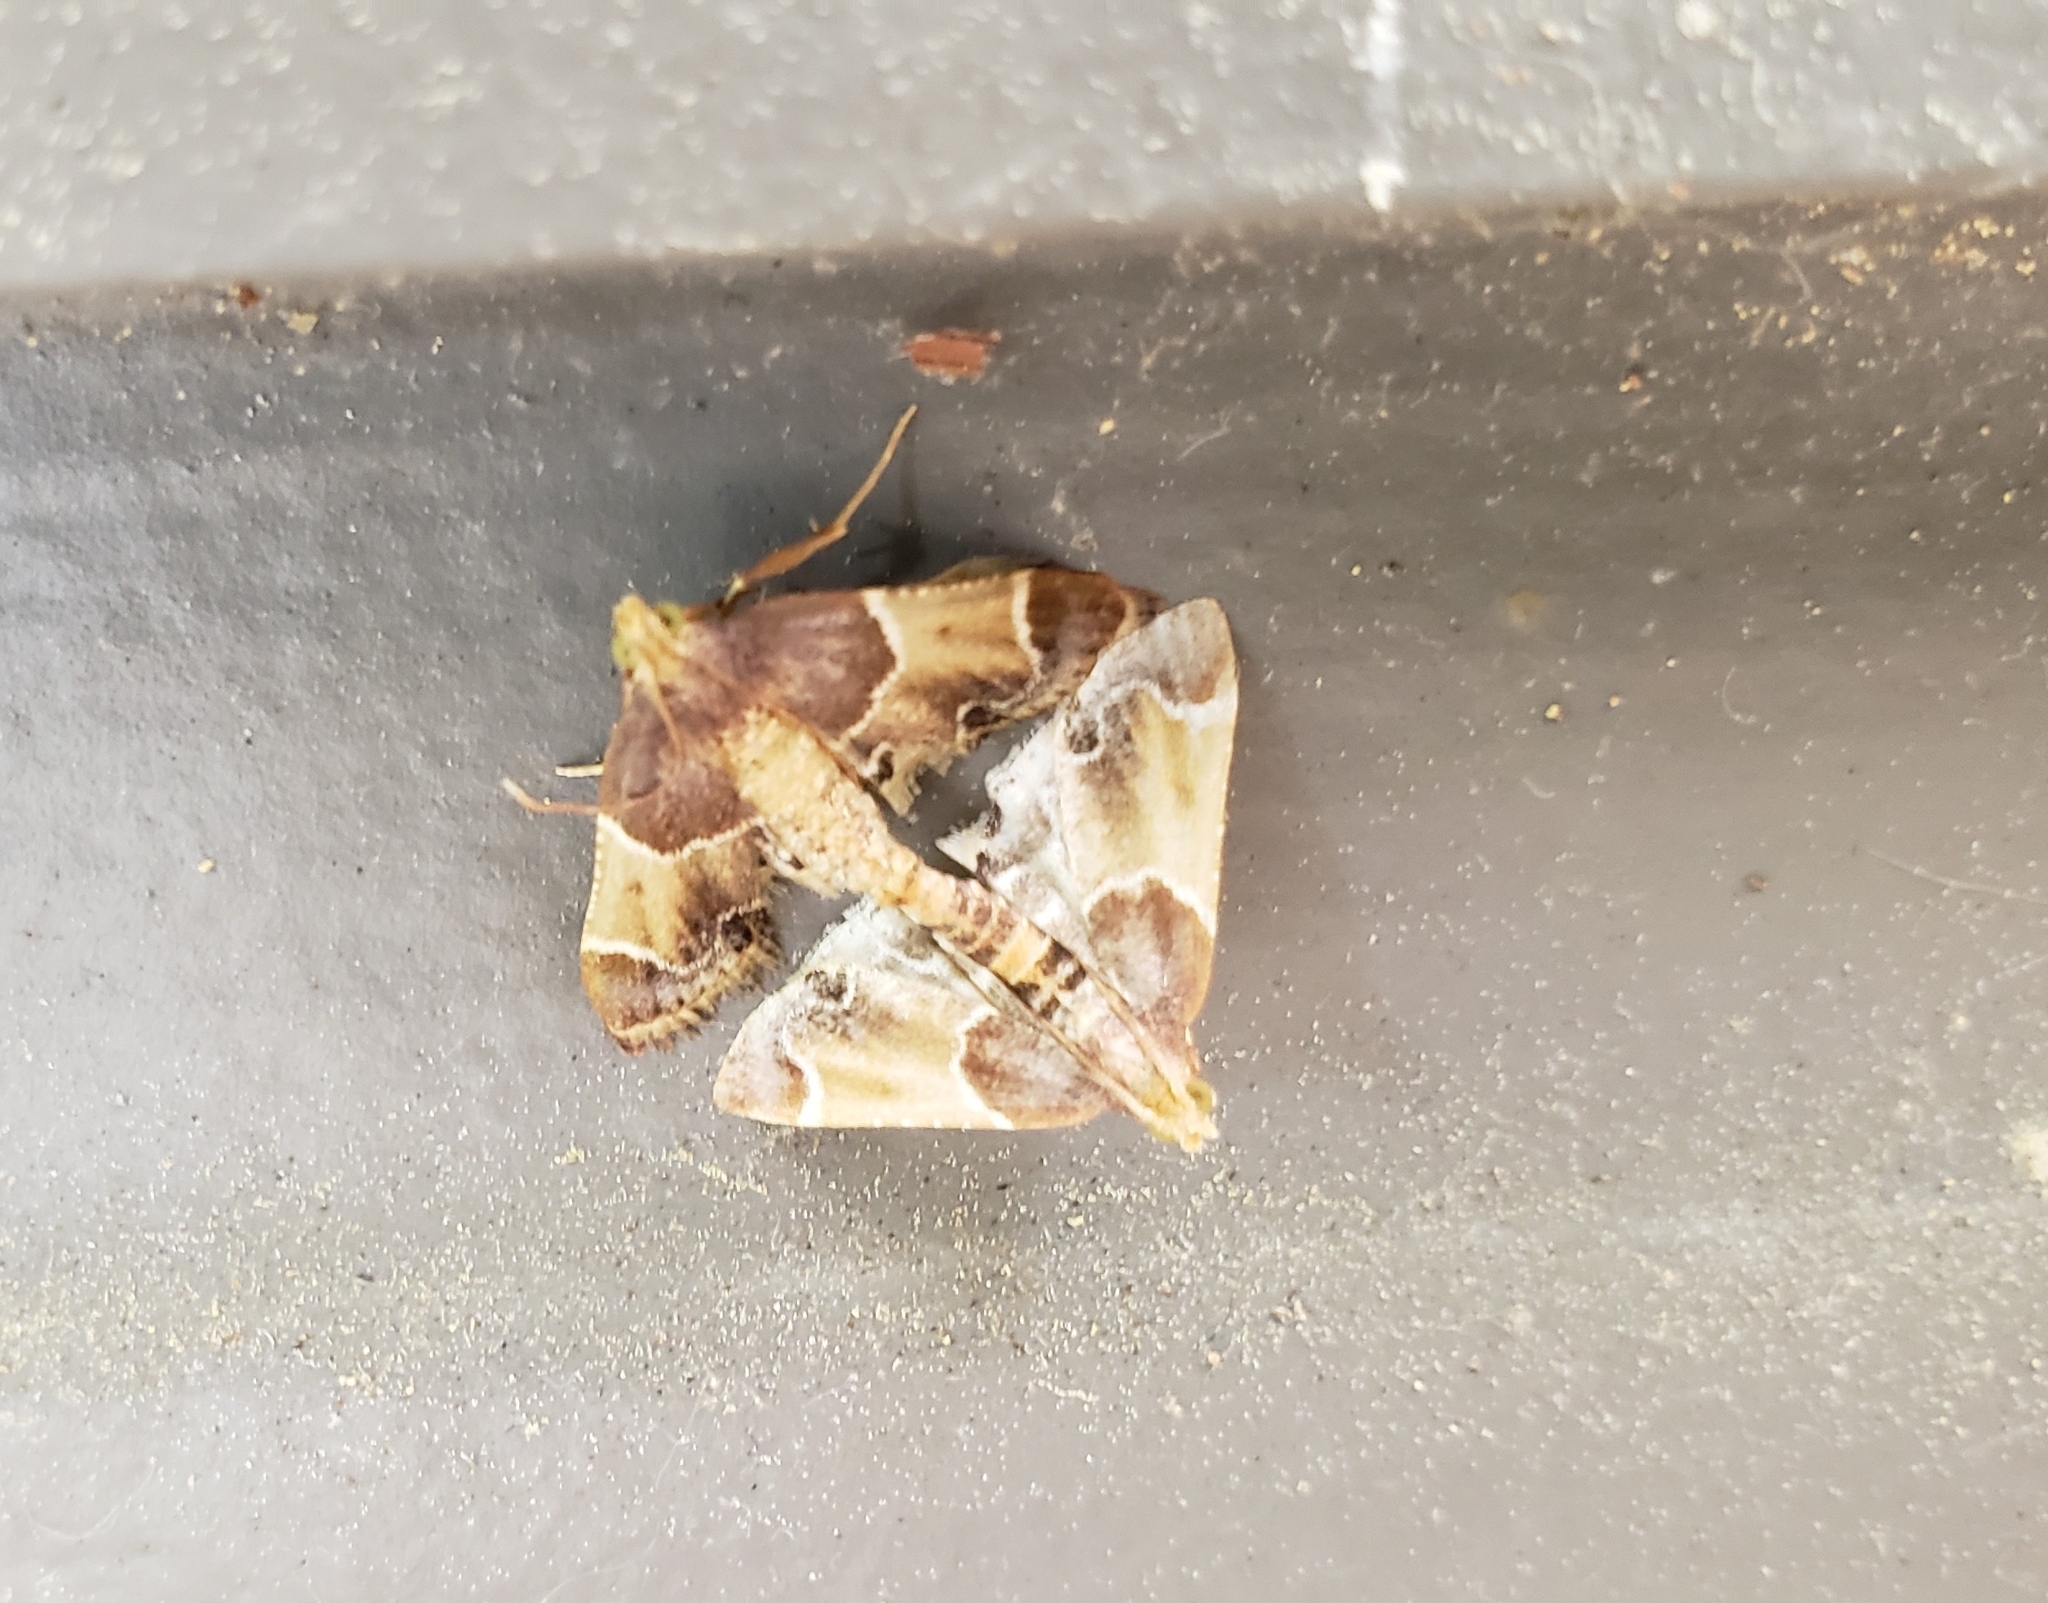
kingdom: Animalia
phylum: Arthropoda
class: Insecta
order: Lepidoptera
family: Pyralidae
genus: Pyralis
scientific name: Pyralis farinalis
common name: Meal moth
